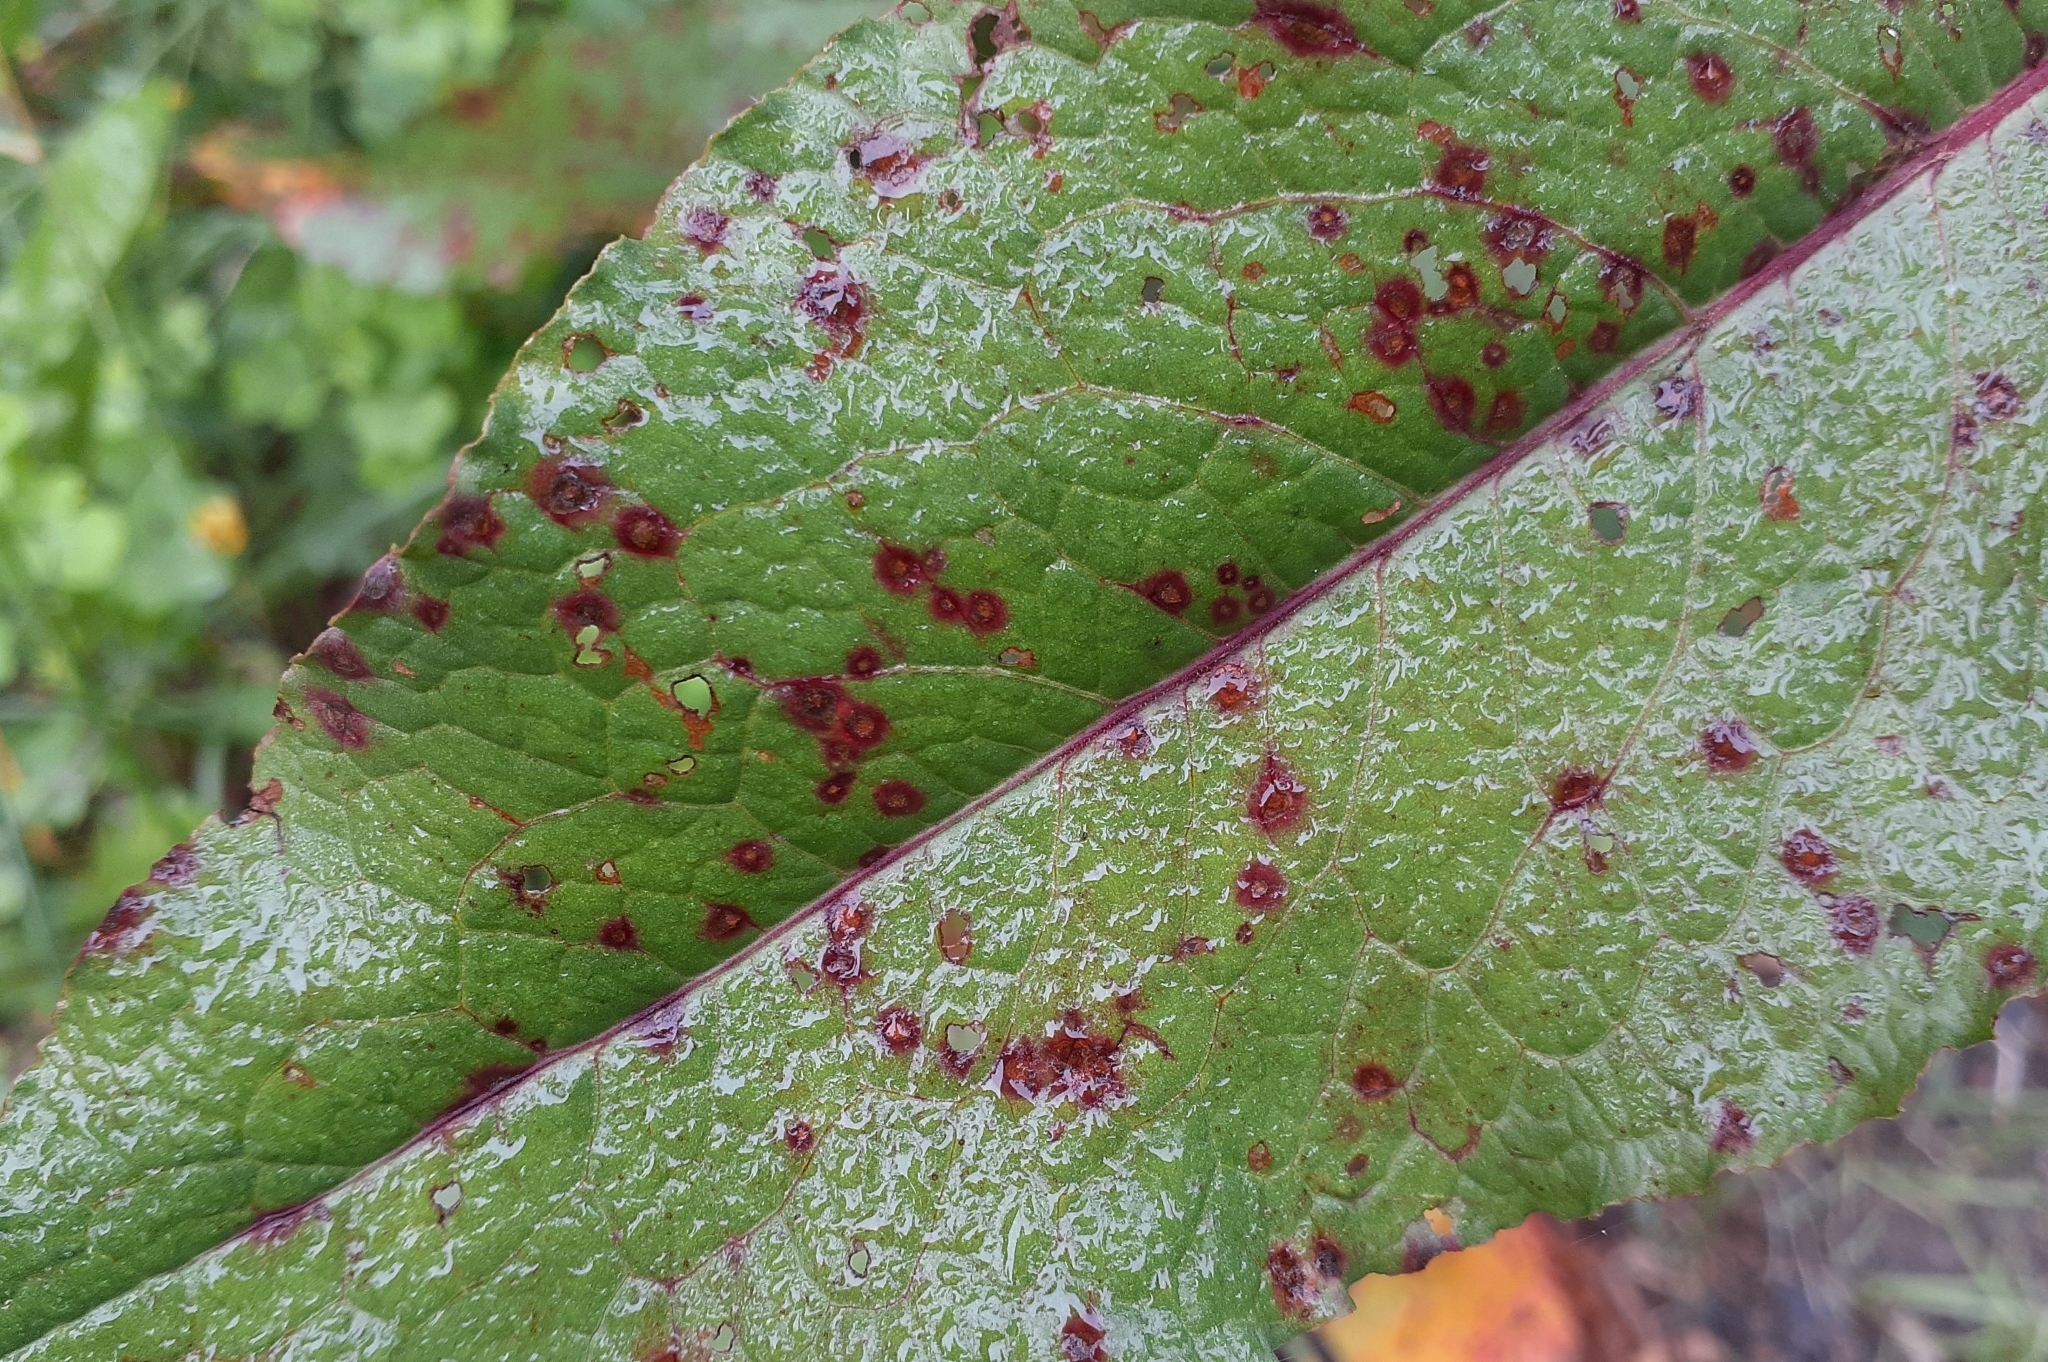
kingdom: Fungi
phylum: Ascomycota
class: Dothideomycetes
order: Mycosphaerellales
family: Mycosphaerellaceae
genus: Ramularia
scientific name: Ramularia rubella
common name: Red dock spot
